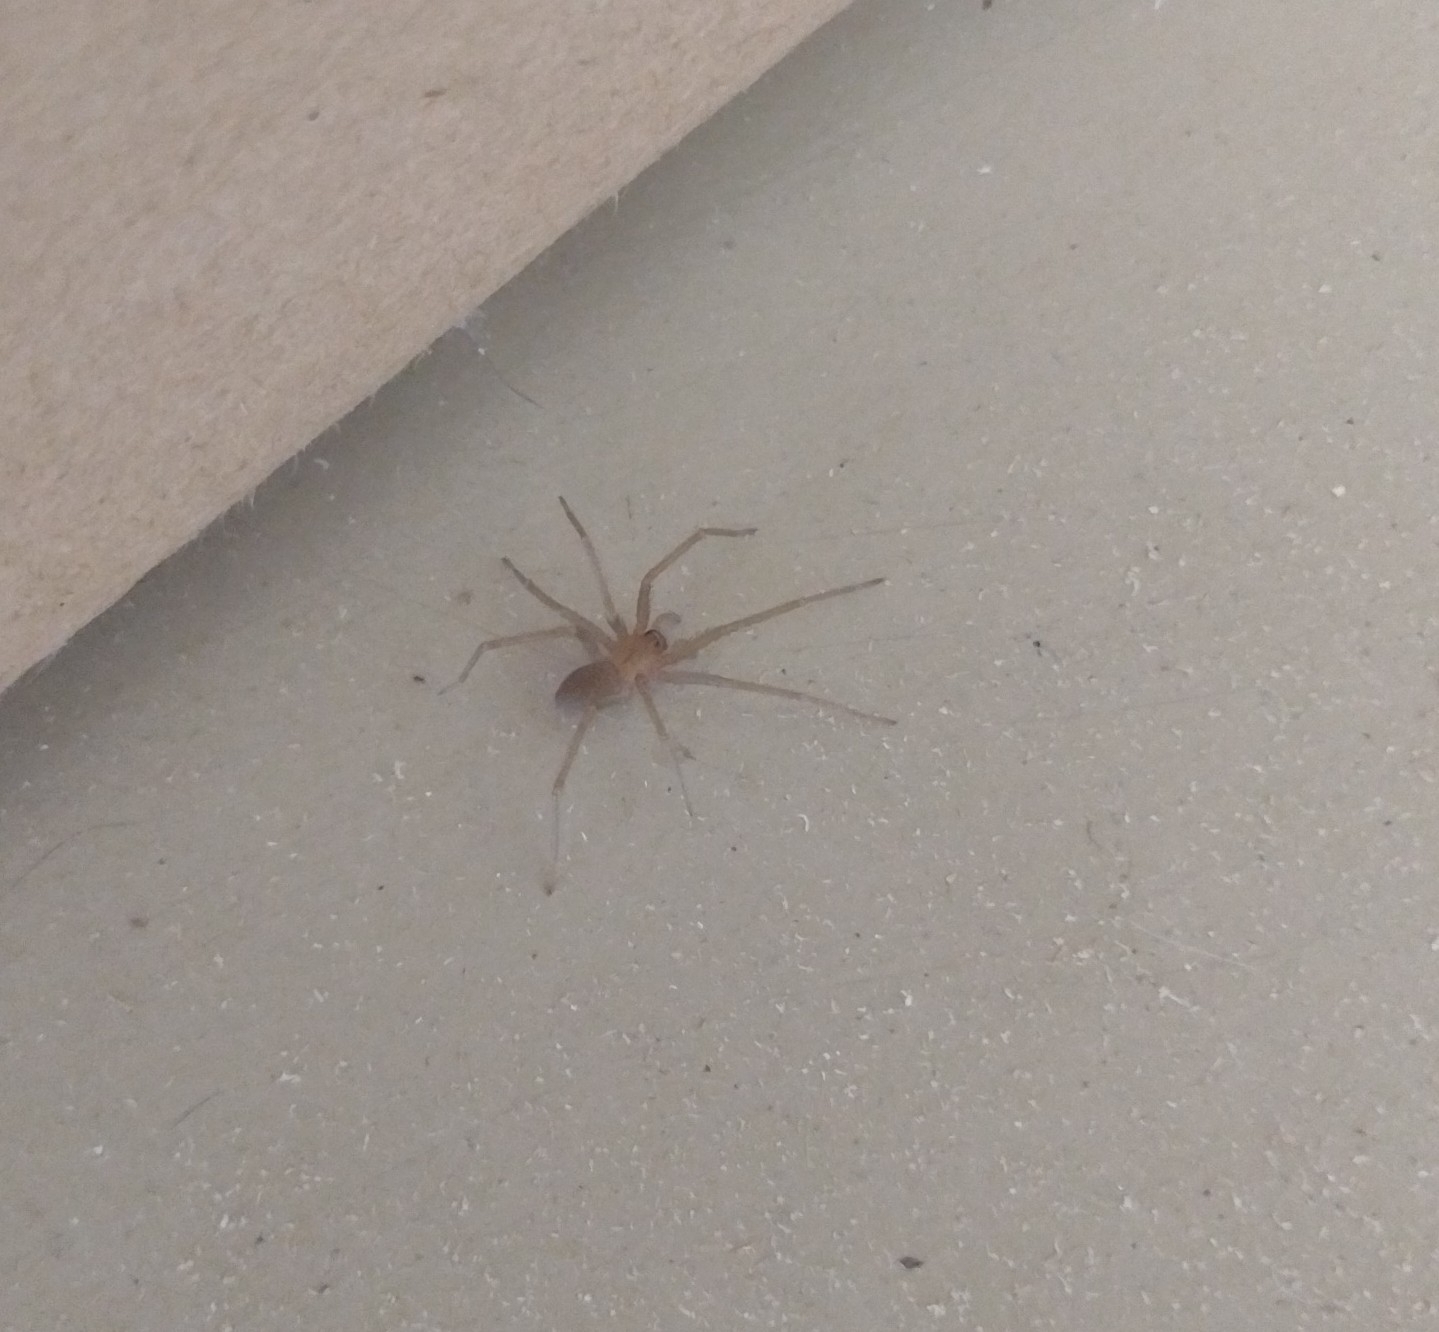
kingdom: Animalia
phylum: Arthropoda
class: Arachnida
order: Araneae
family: Sicariidae
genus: Loxosceles
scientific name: Loxosceles laeta
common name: Chilean recluse spider
